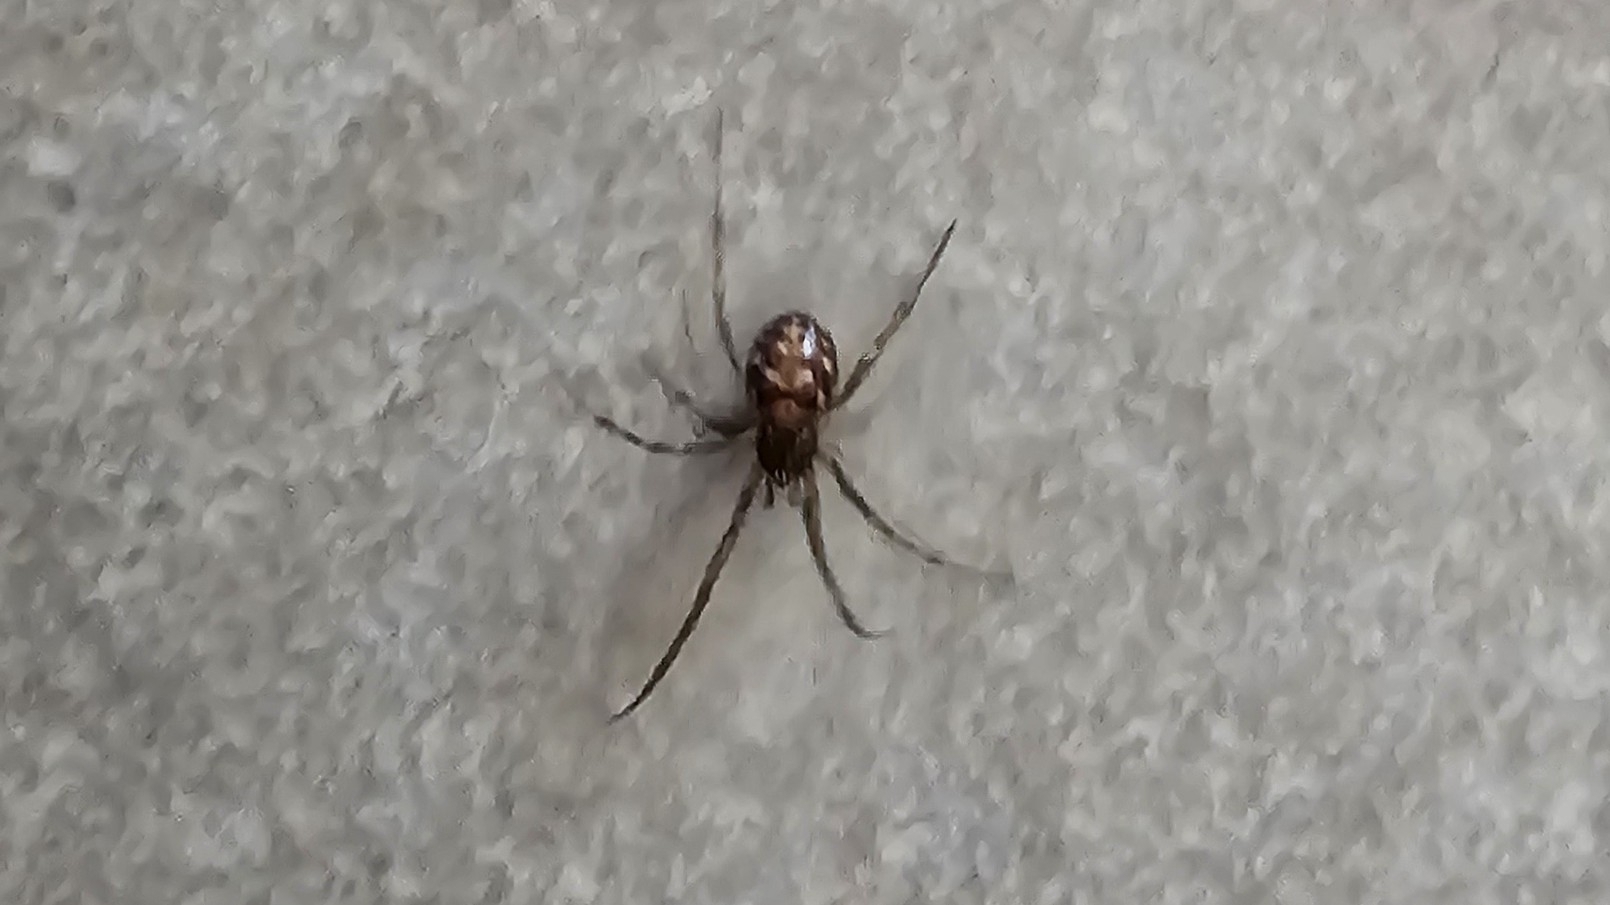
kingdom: Animalia
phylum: Arthropoda
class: Arachnida
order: Araneae
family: Theridiidae
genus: Steatoda
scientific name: Steatoda triangulosa
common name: Triangulate bud spider
